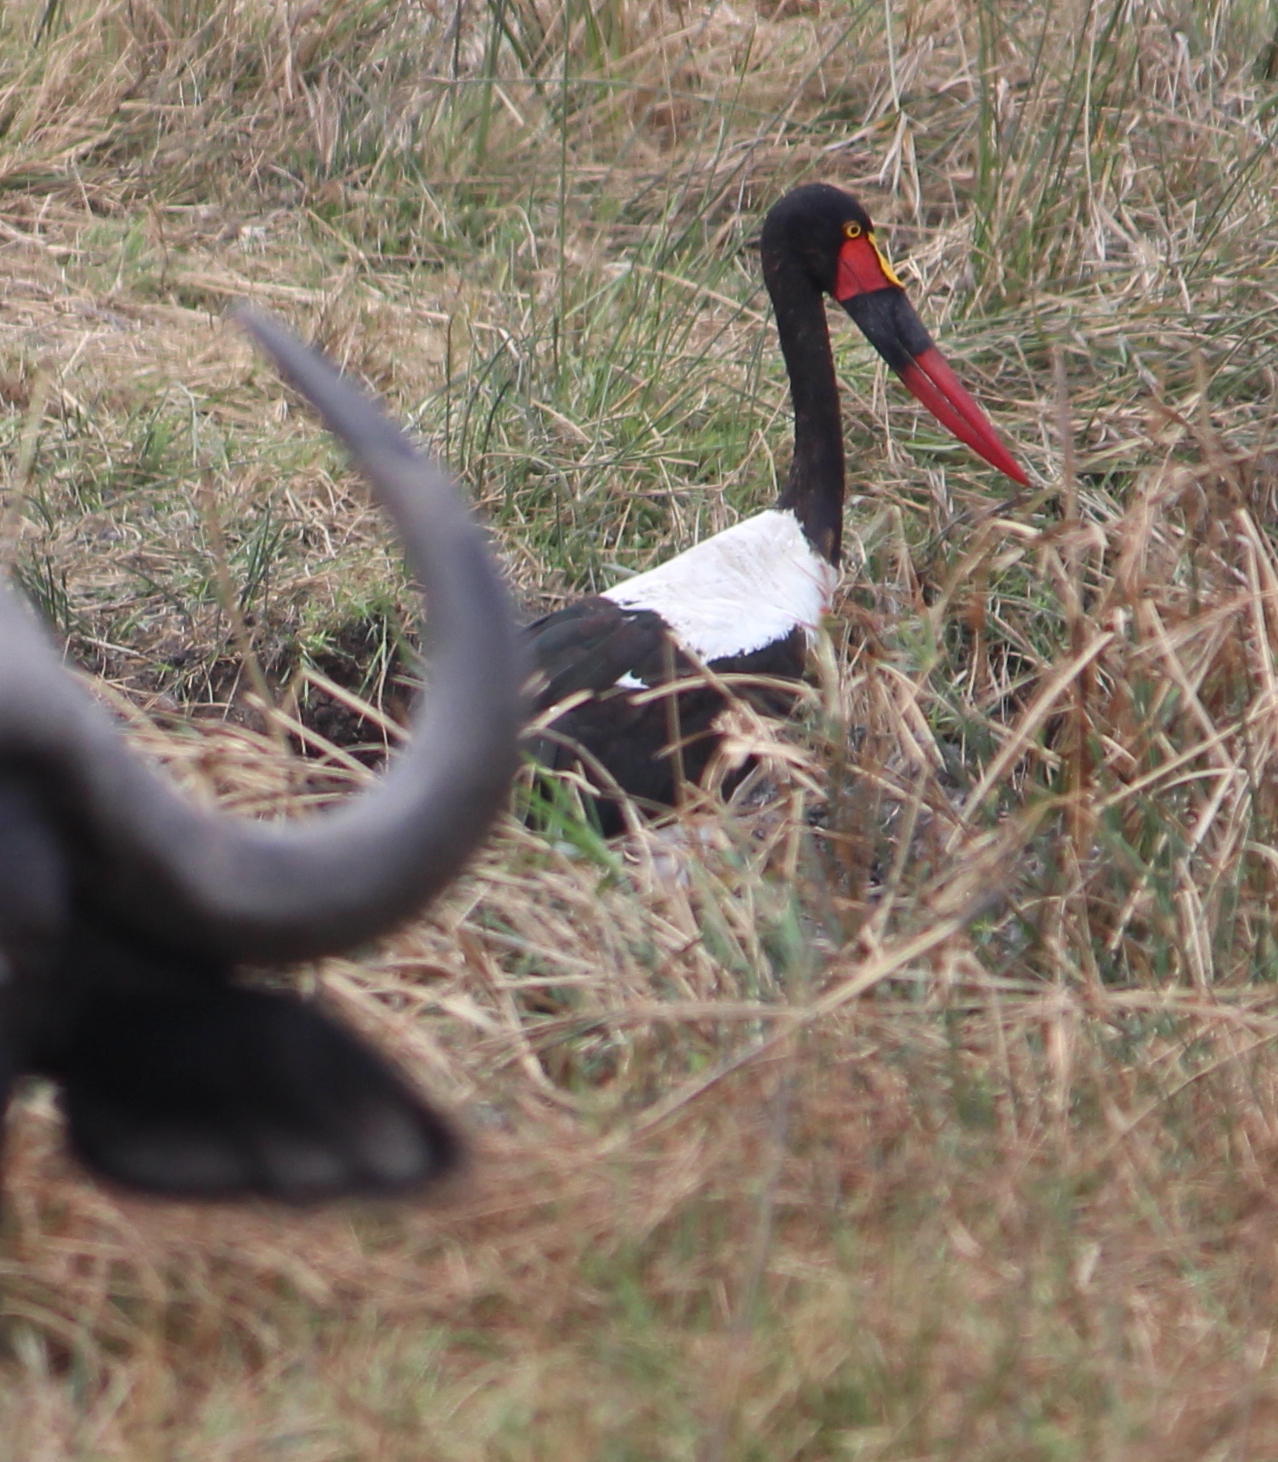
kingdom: Animalia
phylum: Chordata
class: Aves
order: Ciconiiformes
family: Ciconiidae
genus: Ephippiorhynchus
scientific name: Ephippiorhynchus senegalensis
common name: Saddle-billed stork
